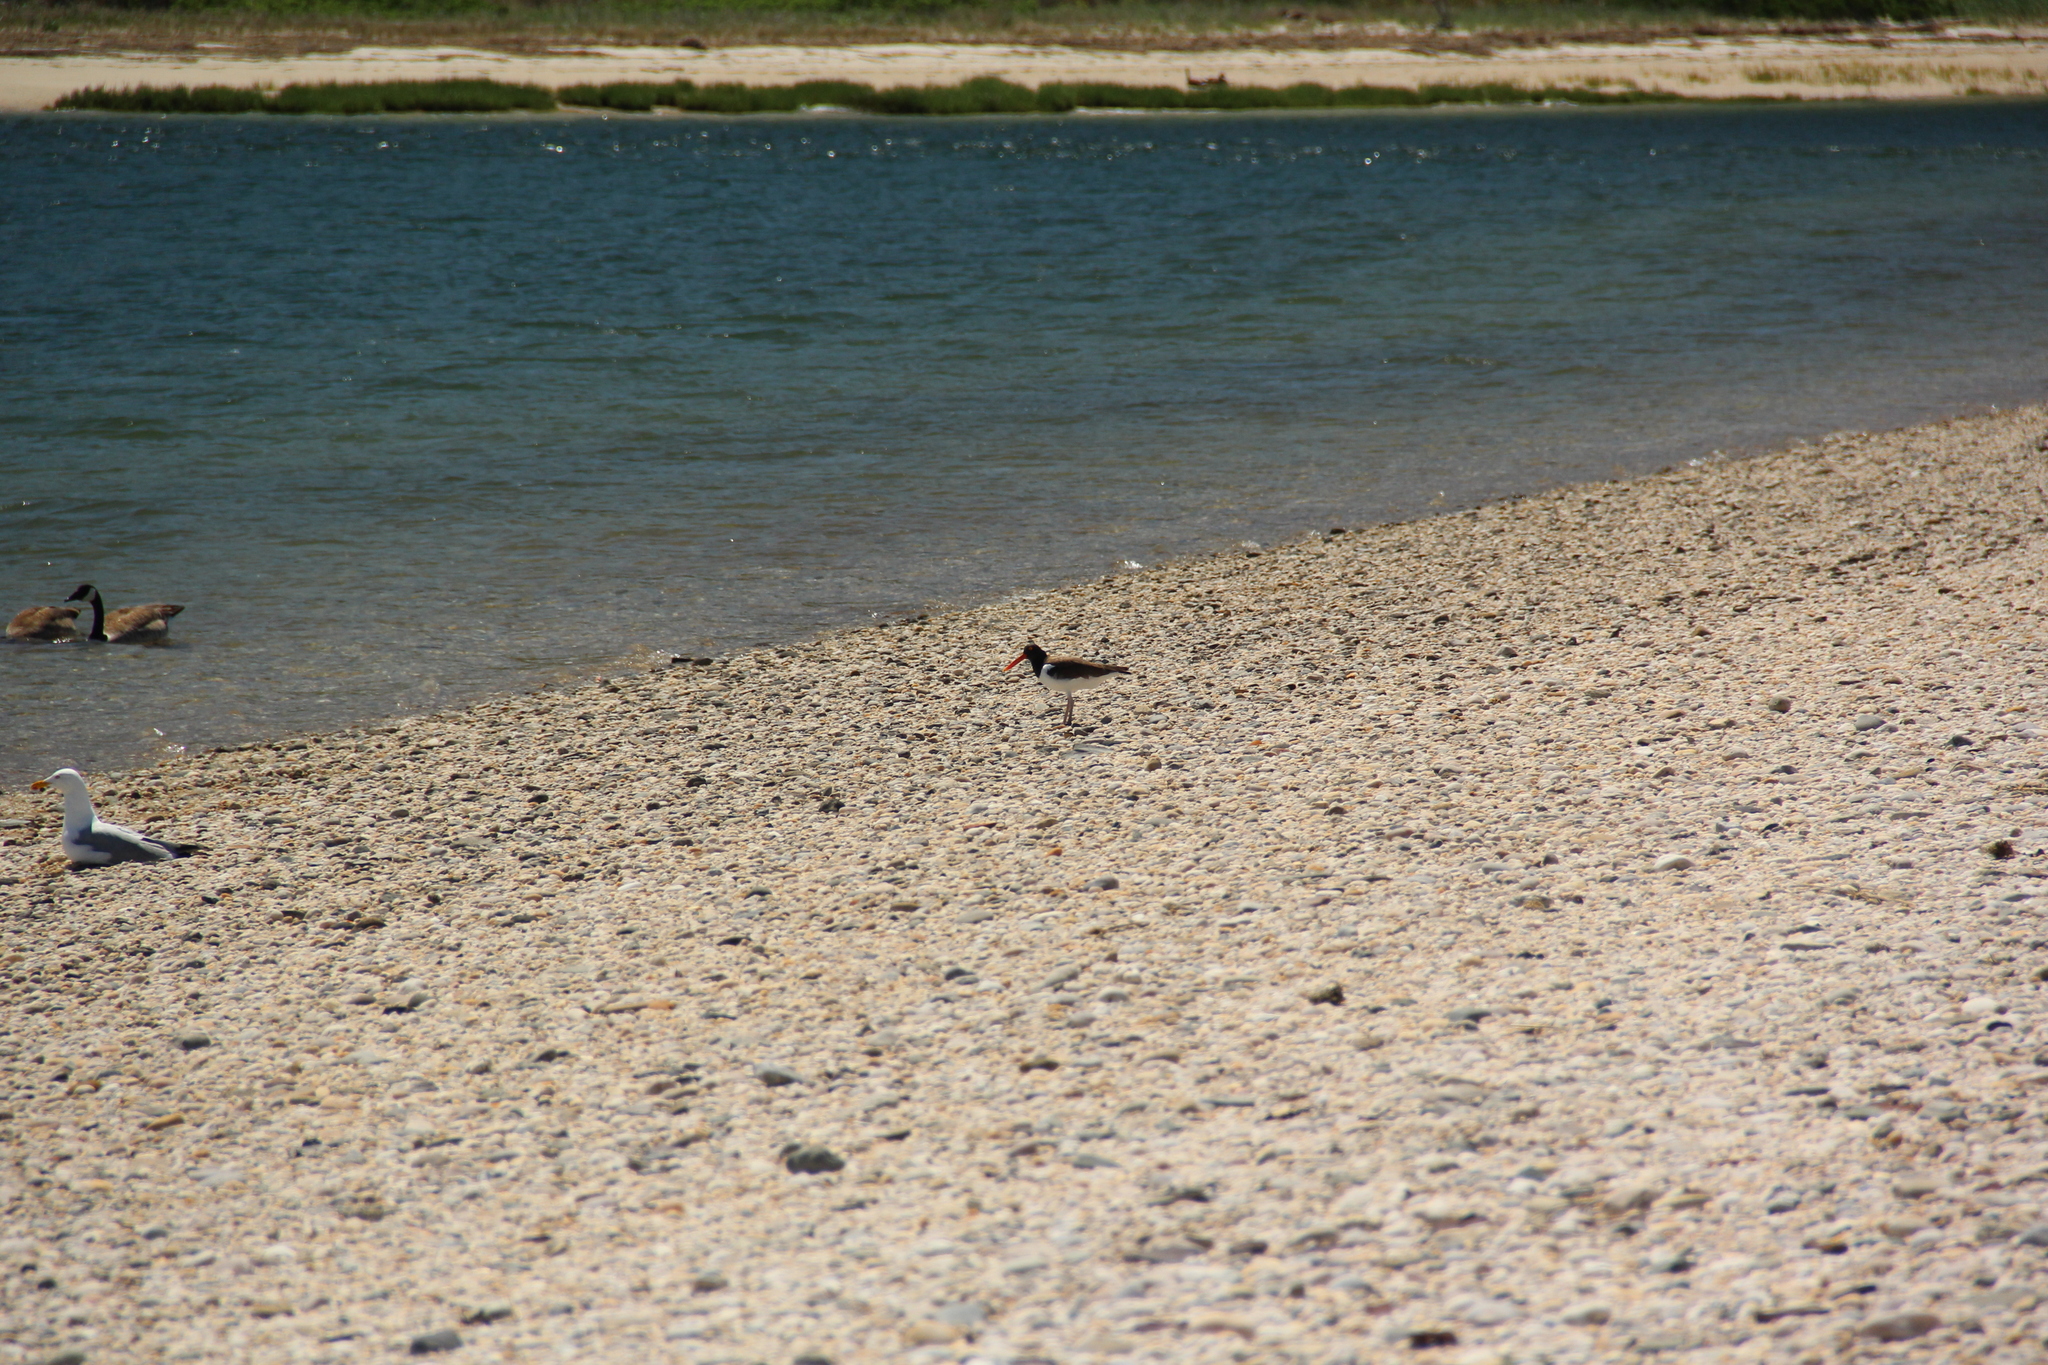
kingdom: Animalia
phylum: Chordata
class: Aves
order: Charadriiformes
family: Haematopodidae
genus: Haematopus
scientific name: Haematopus palliatus
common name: American oystercatcher
